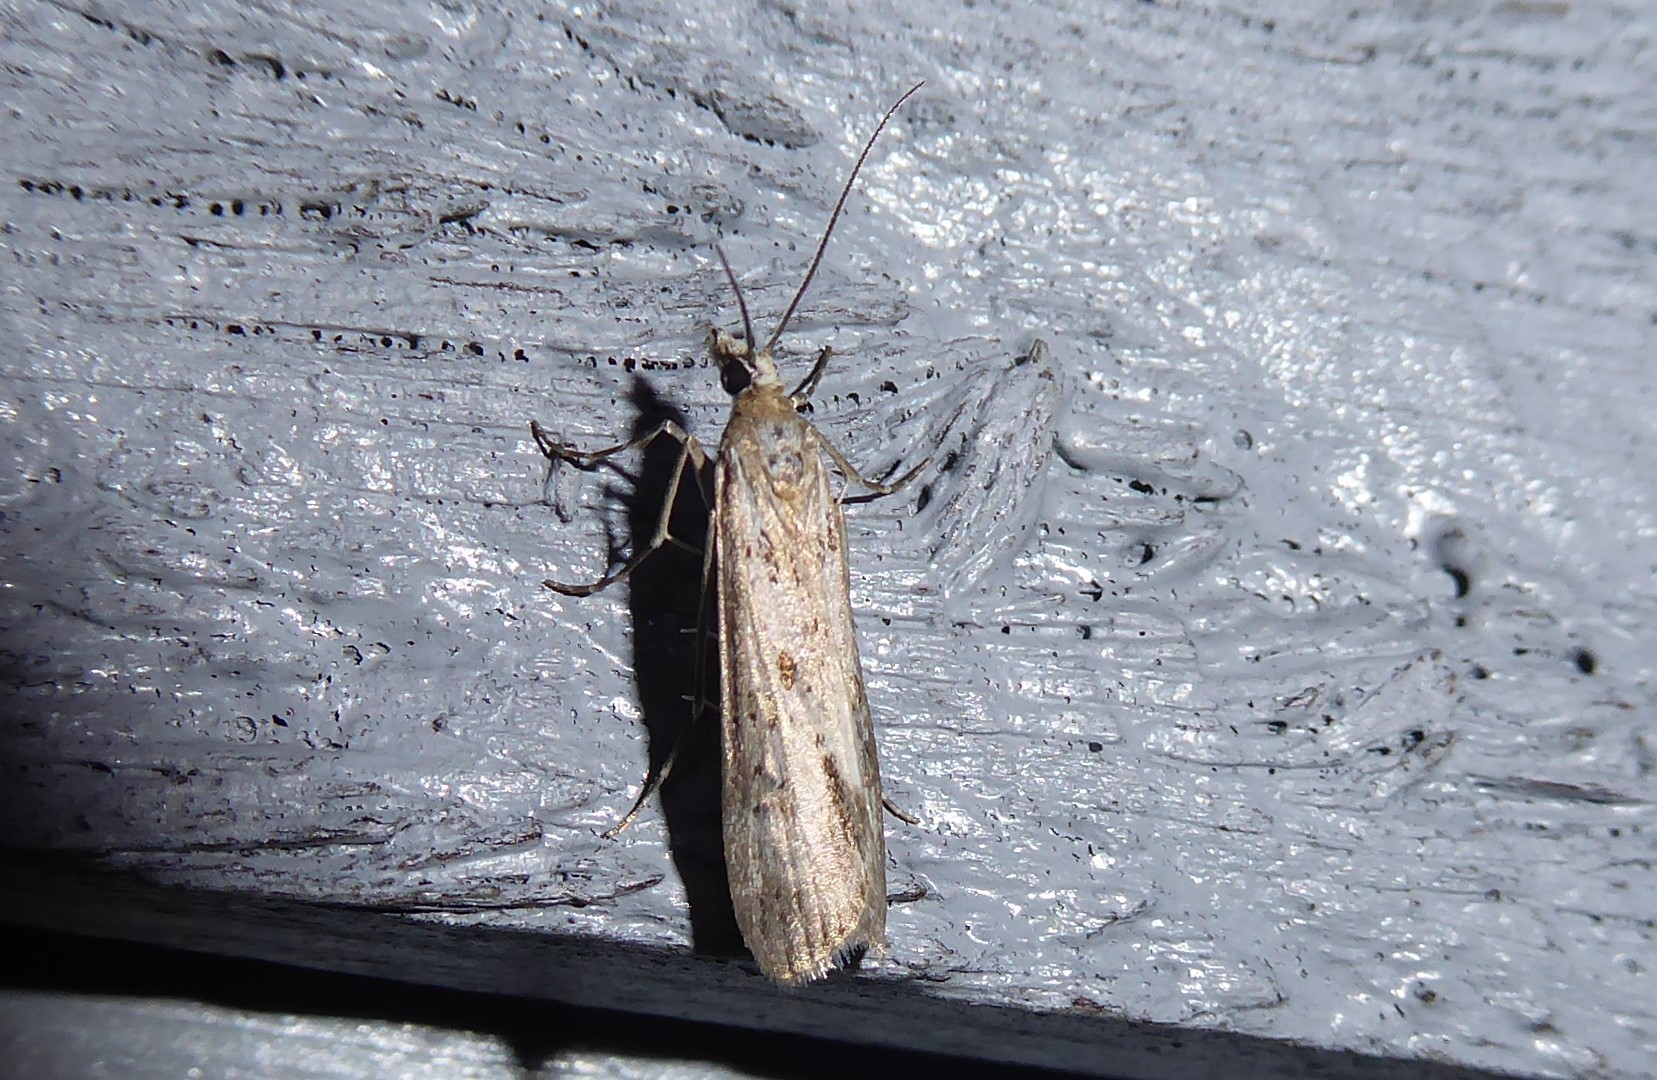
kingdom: Animalia
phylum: Arthropoda
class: Insecta
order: Lepidoptera
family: Crambidae
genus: Eudonia
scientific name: Eudonia leptalea
